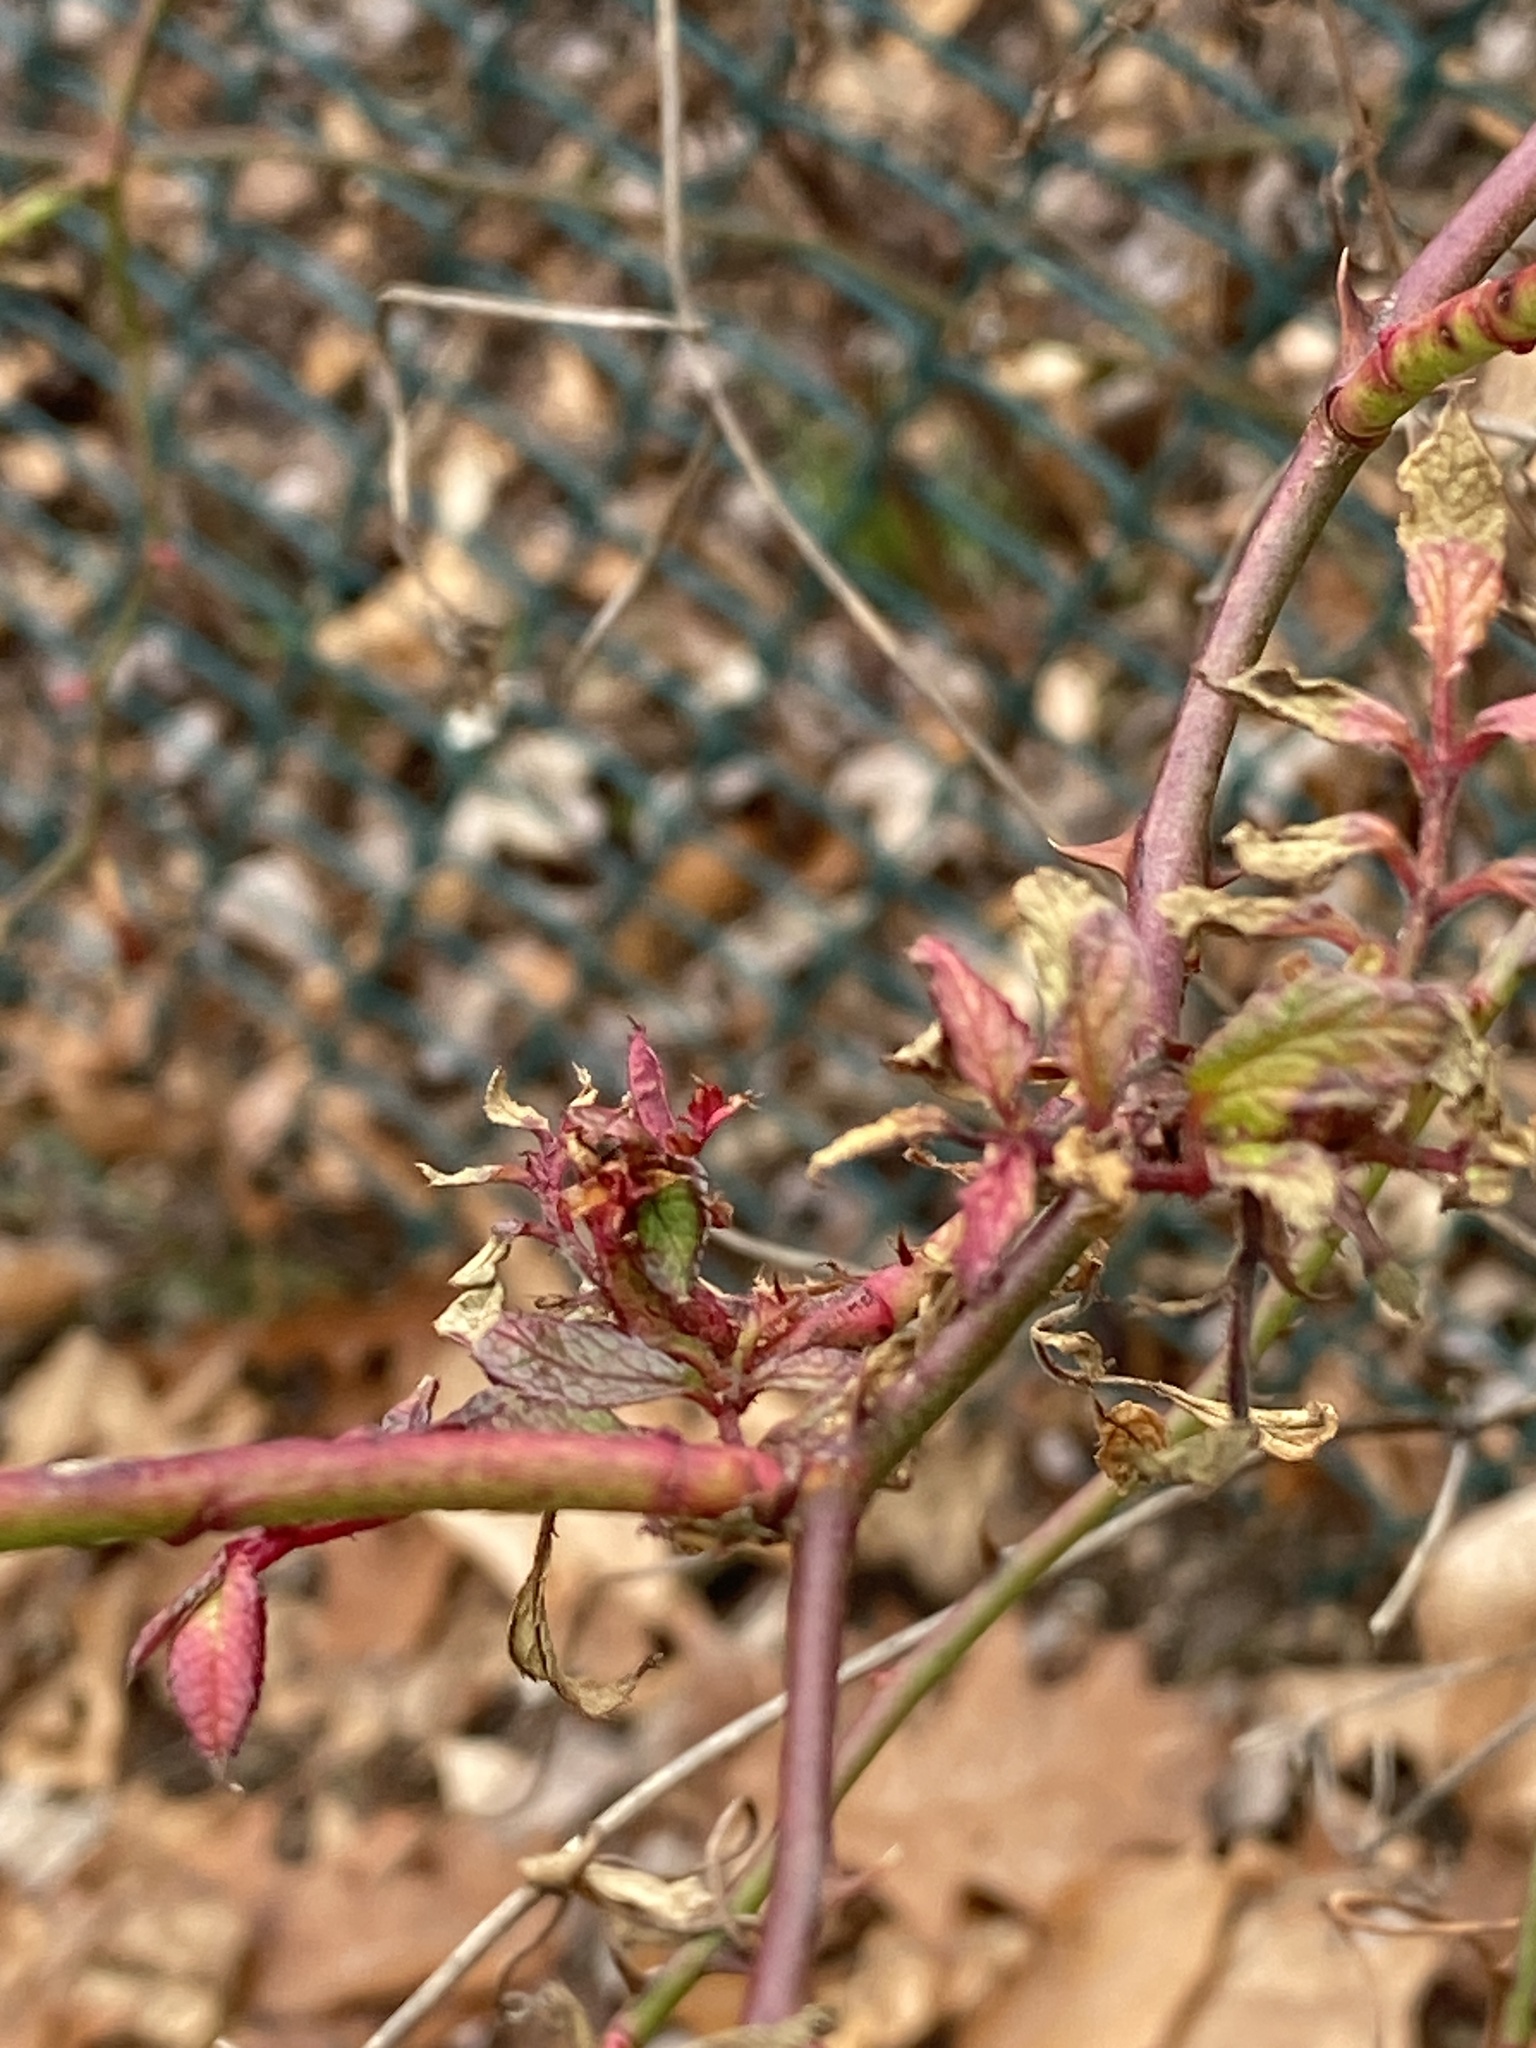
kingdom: Viruses
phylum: Negarnaviricota
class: Ellioviricetes
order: Bunyavirales
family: Fimoviridae
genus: Emaravirus
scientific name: Emaravirus rosae
